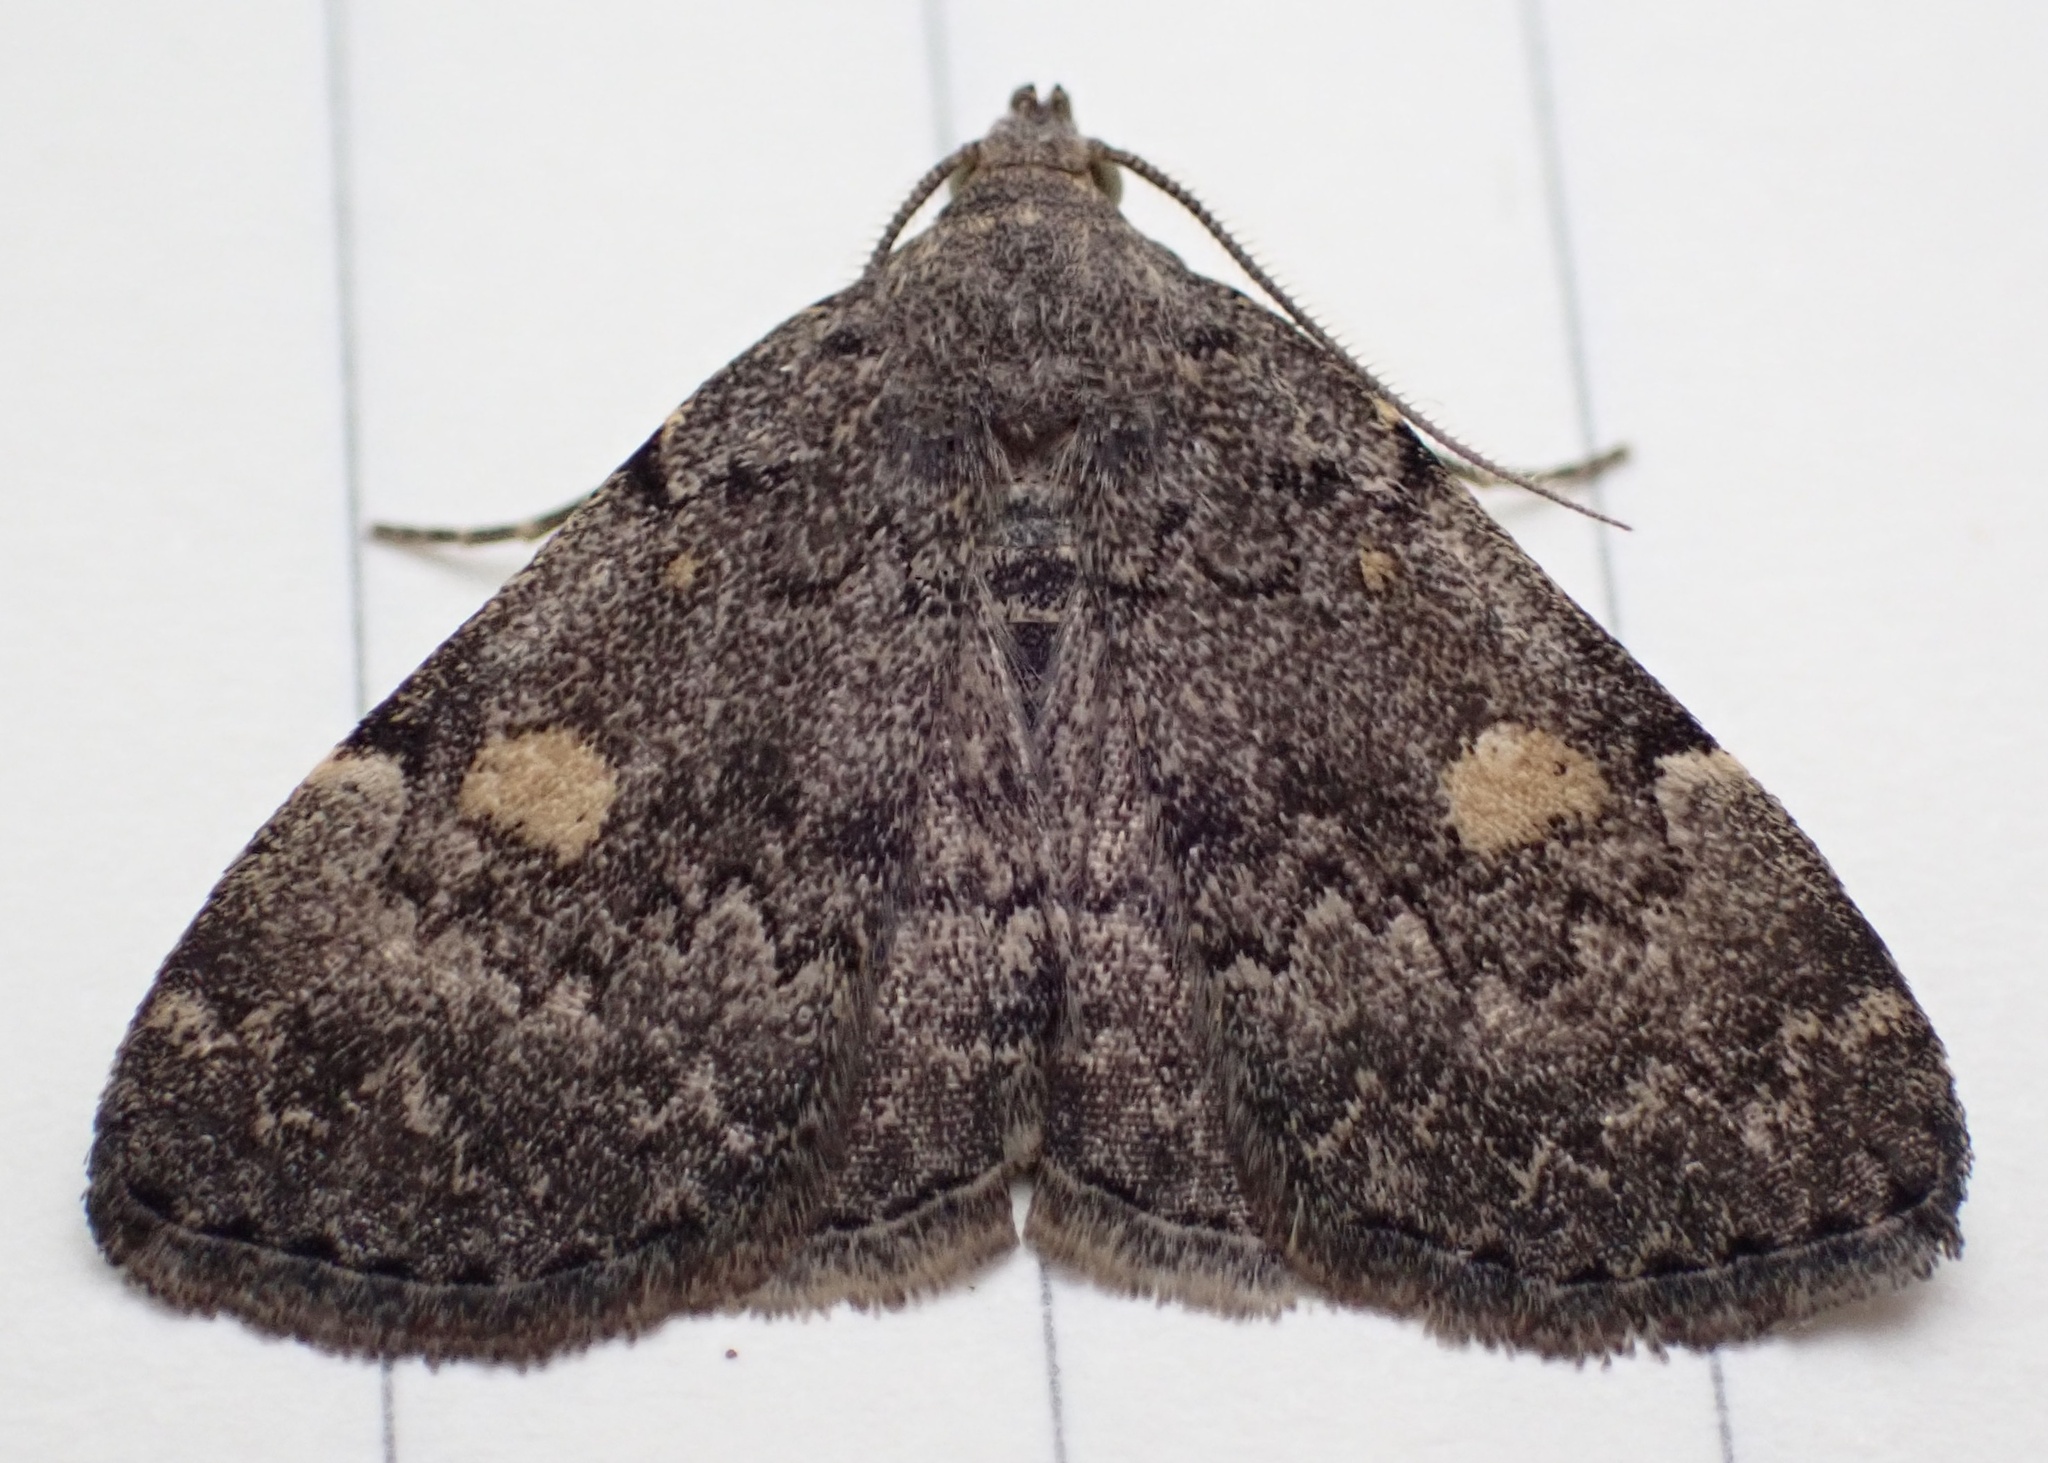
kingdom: Animalia
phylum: Arthropoda
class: Insecta
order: Lepidoptera
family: Erebidae
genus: Idia
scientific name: Idia aemula
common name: Common idia moth
